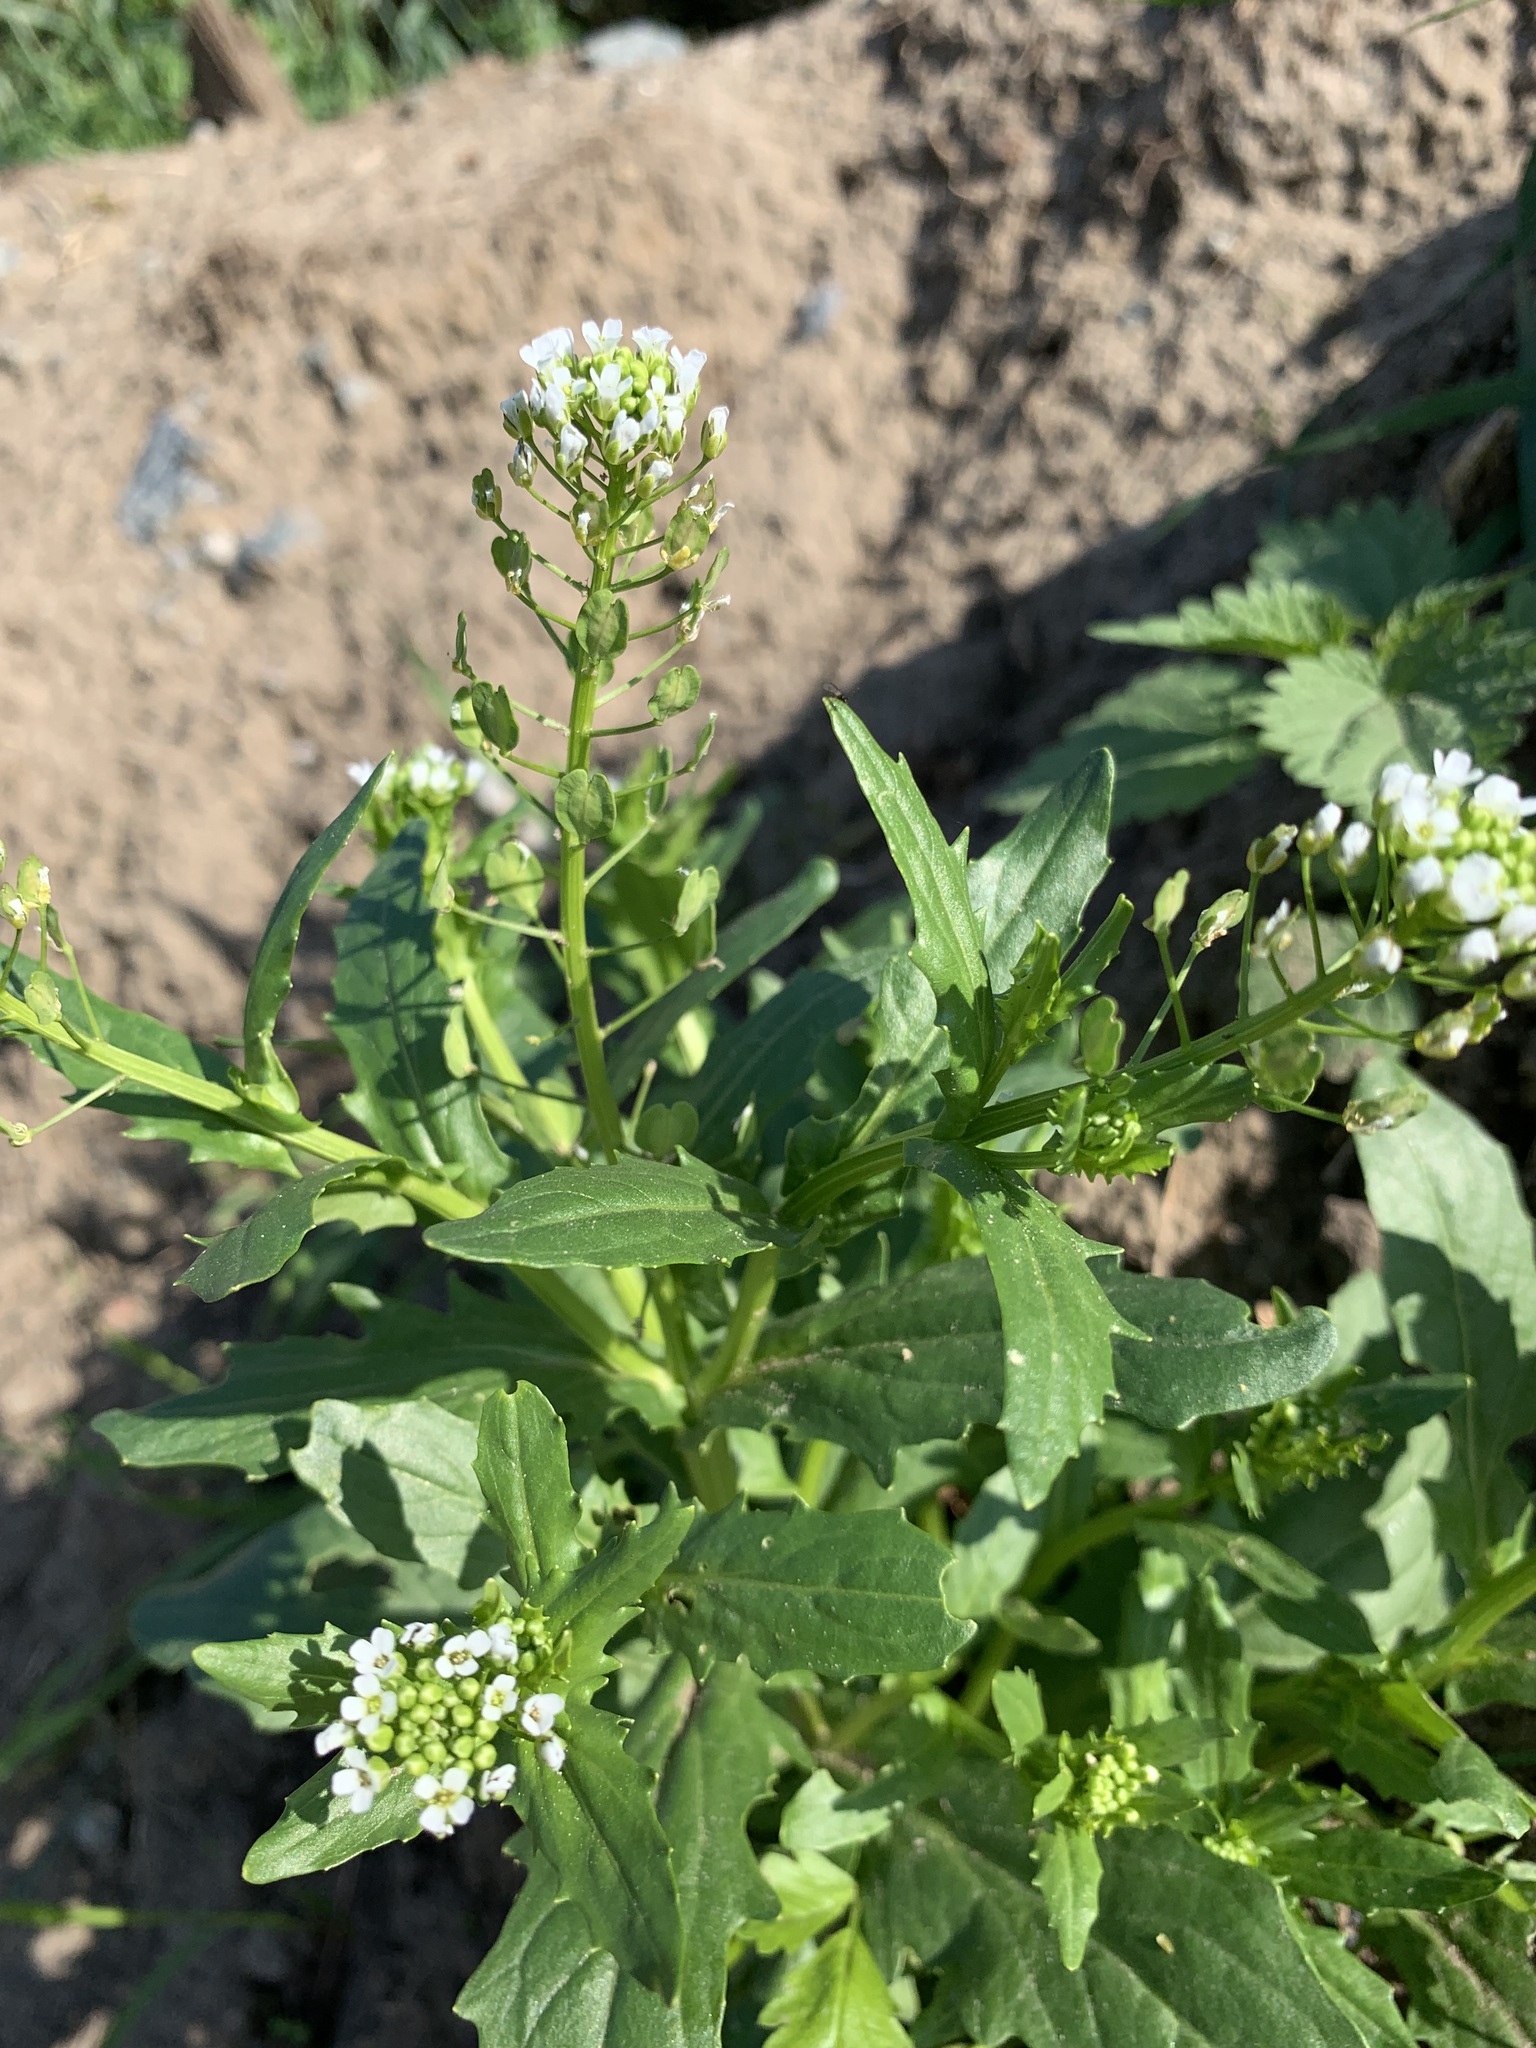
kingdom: Plantae
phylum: Tracheophyta
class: Magnoliopsida
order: Brassicales
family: Brassicaceae
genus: Thlaspi
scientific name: Thlaspi arvense
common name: Field pennycress
